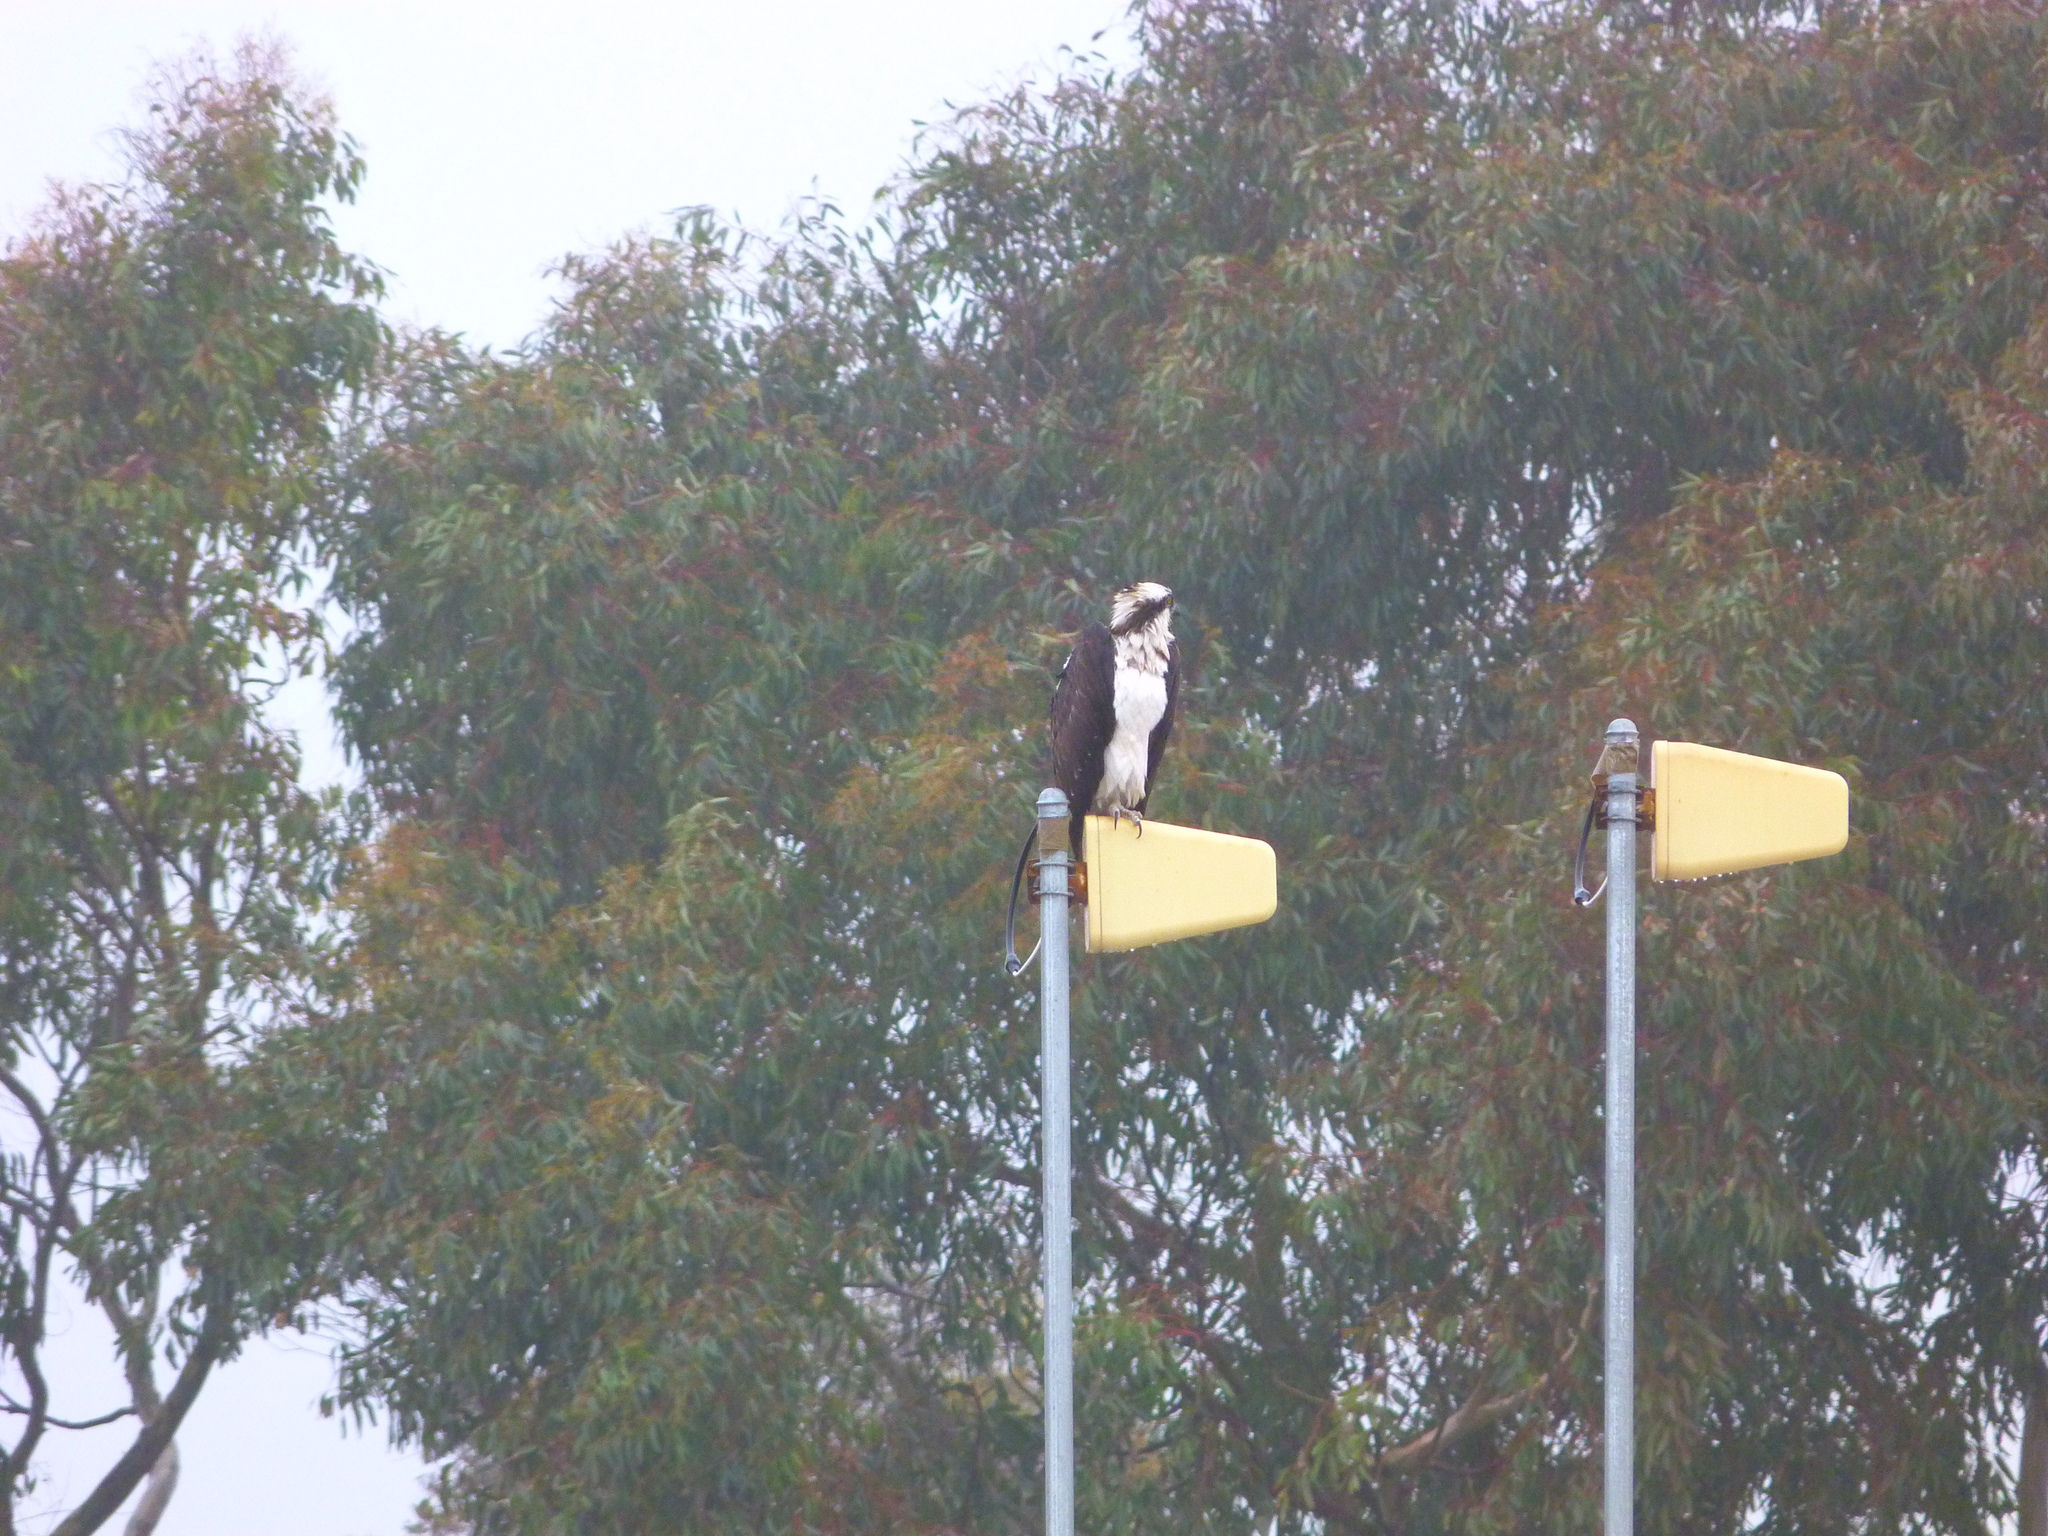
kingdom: Animalia
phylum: Chordata
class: Aves
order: Accipitriformes
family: Pandionidae
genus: Pandion
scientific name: Pandion haliaetus
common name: Osprey
